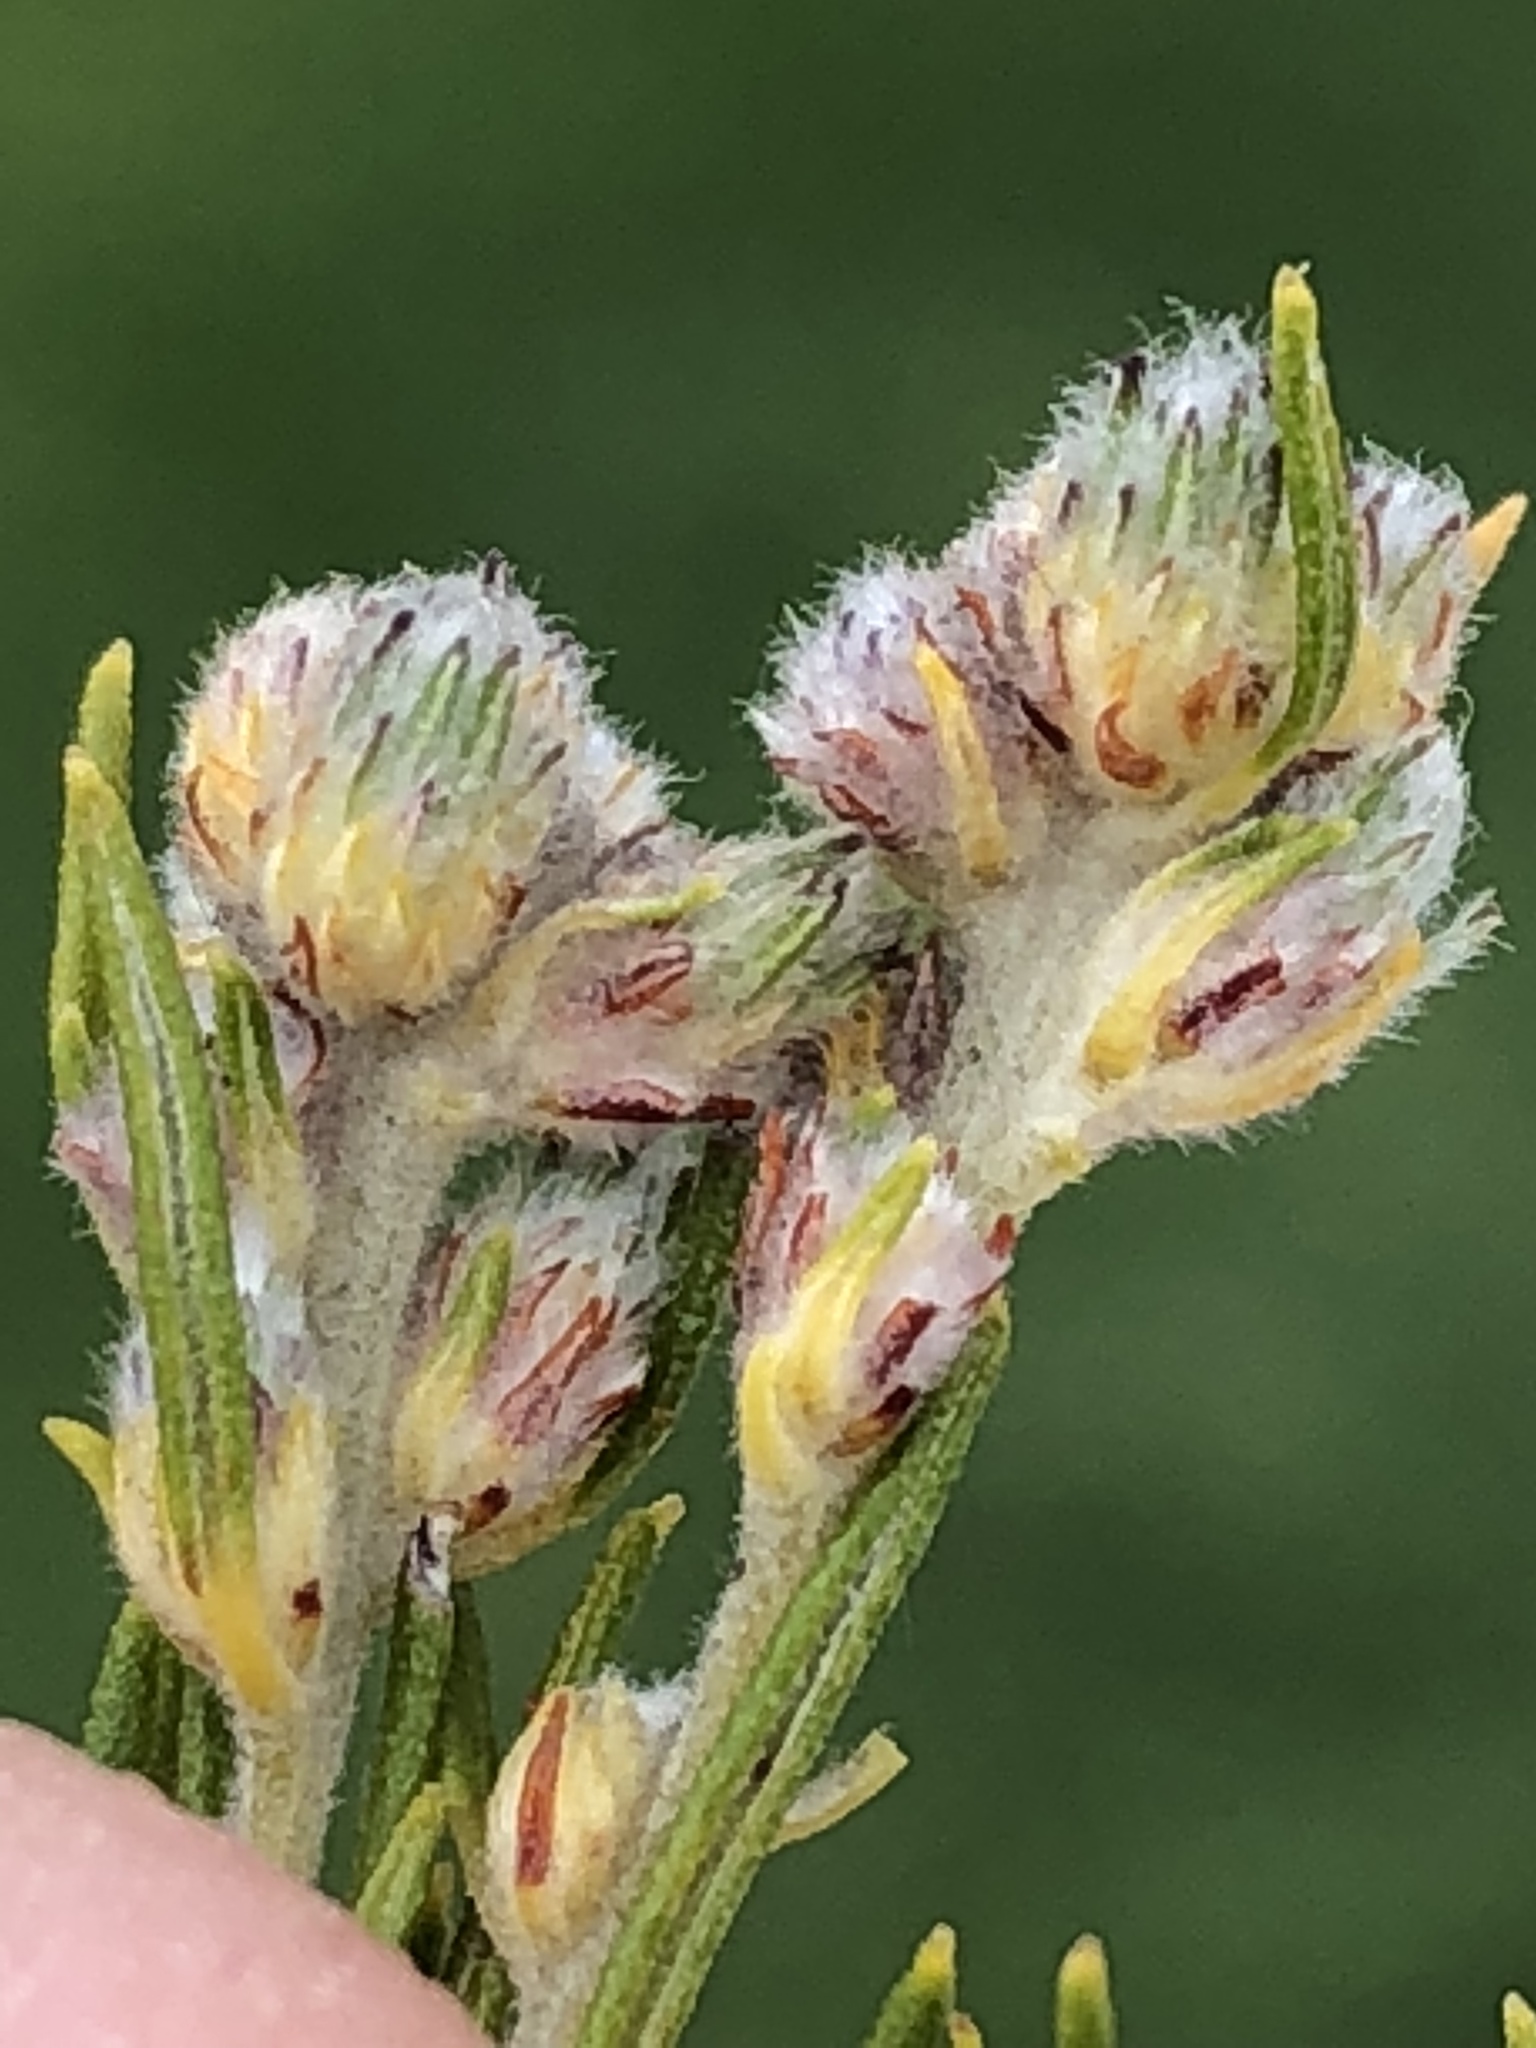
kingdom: Plantae
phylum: Tracheophyta
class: Magnoliopsida
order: Rosales
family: Rhamnaceae
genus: Phylica
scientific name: Phylica wittebergensis
